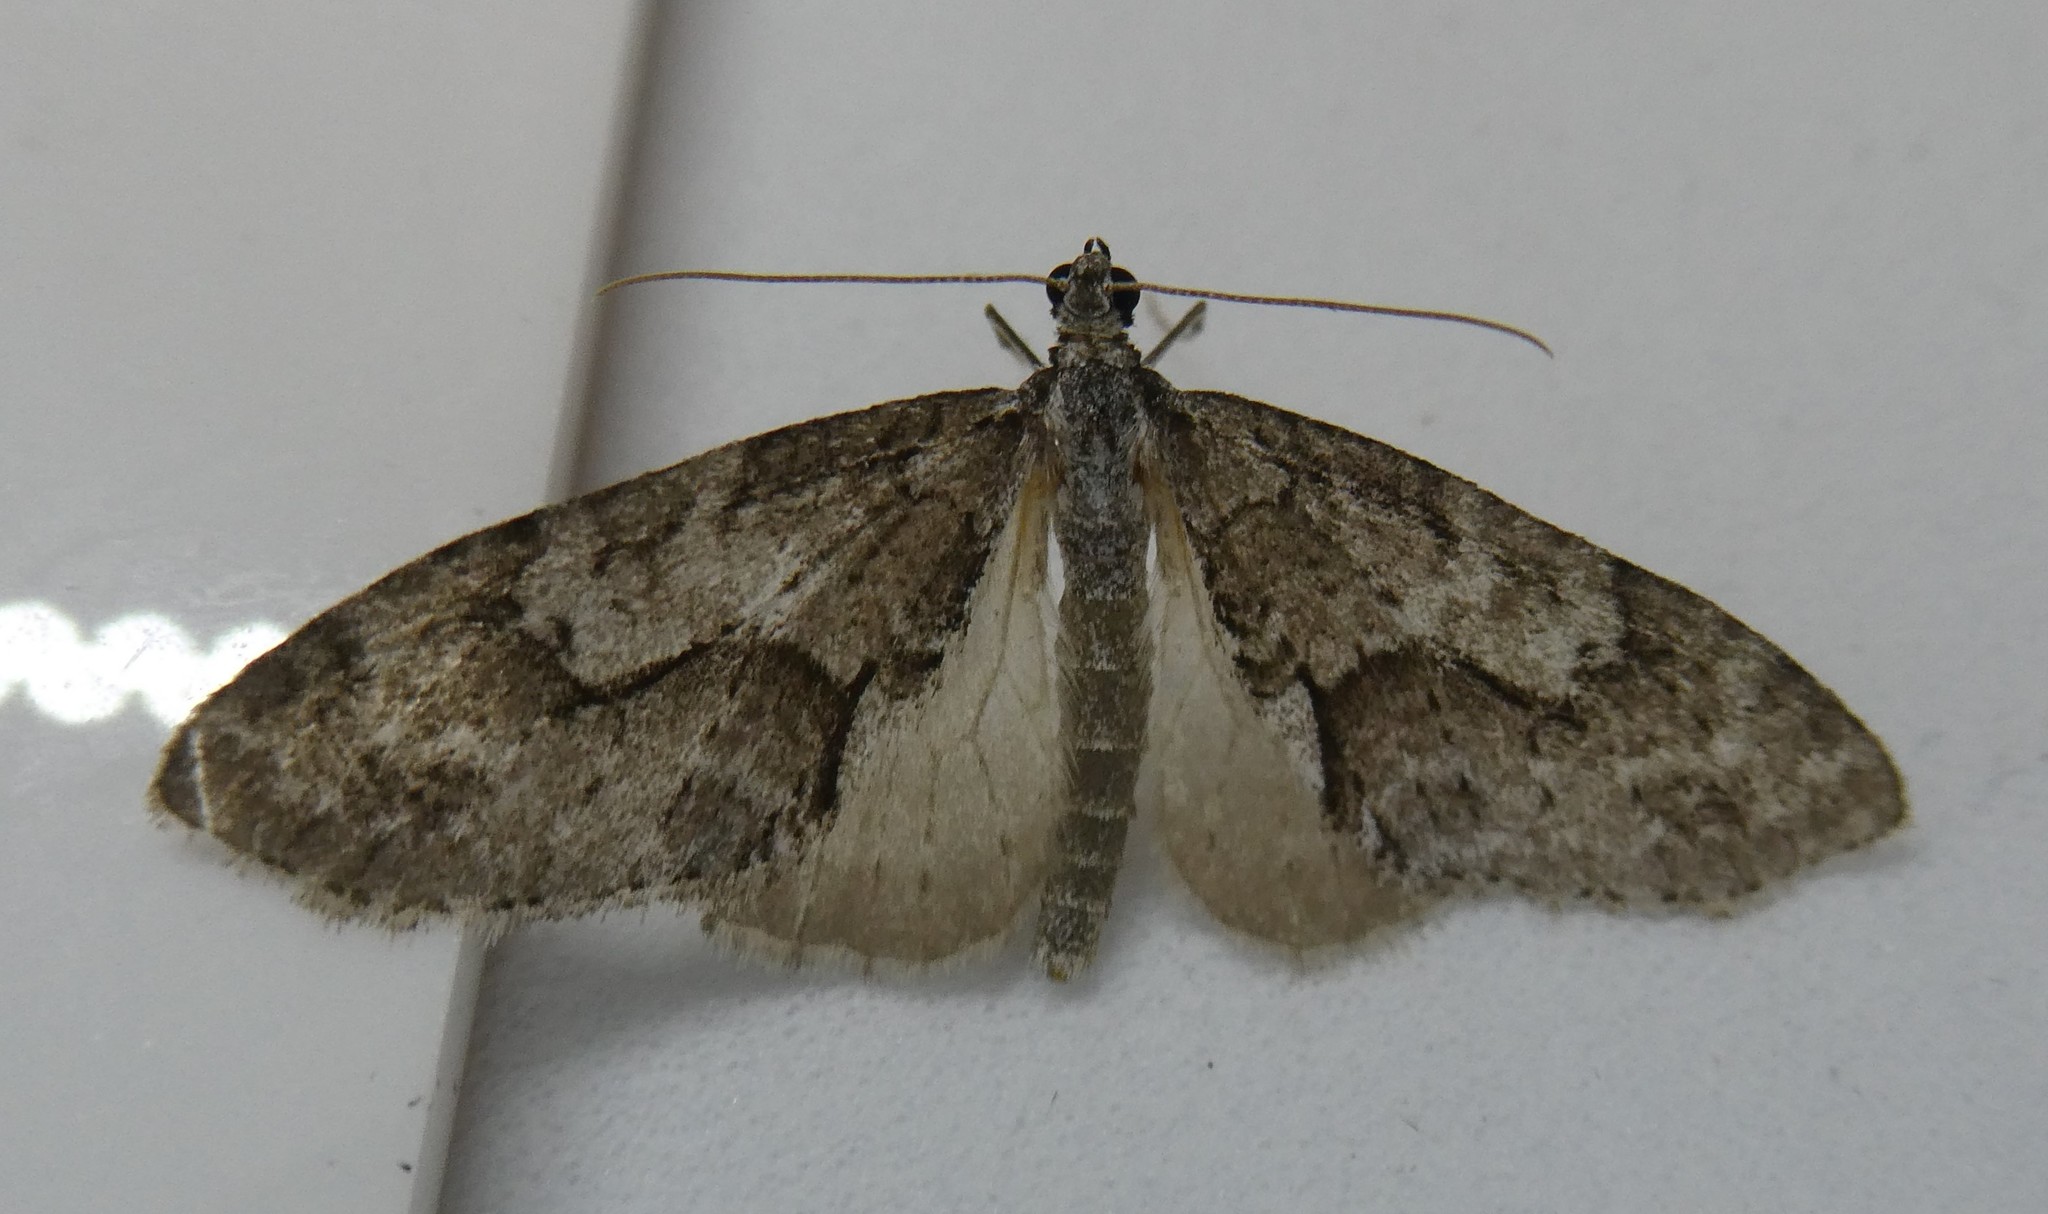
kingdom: Animalia
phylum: Arthropoda
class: Insecta
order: Lepidoptera
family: Geometridae
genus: Cladara
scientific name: Cladara limitaria
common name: Mottled gray carpet
